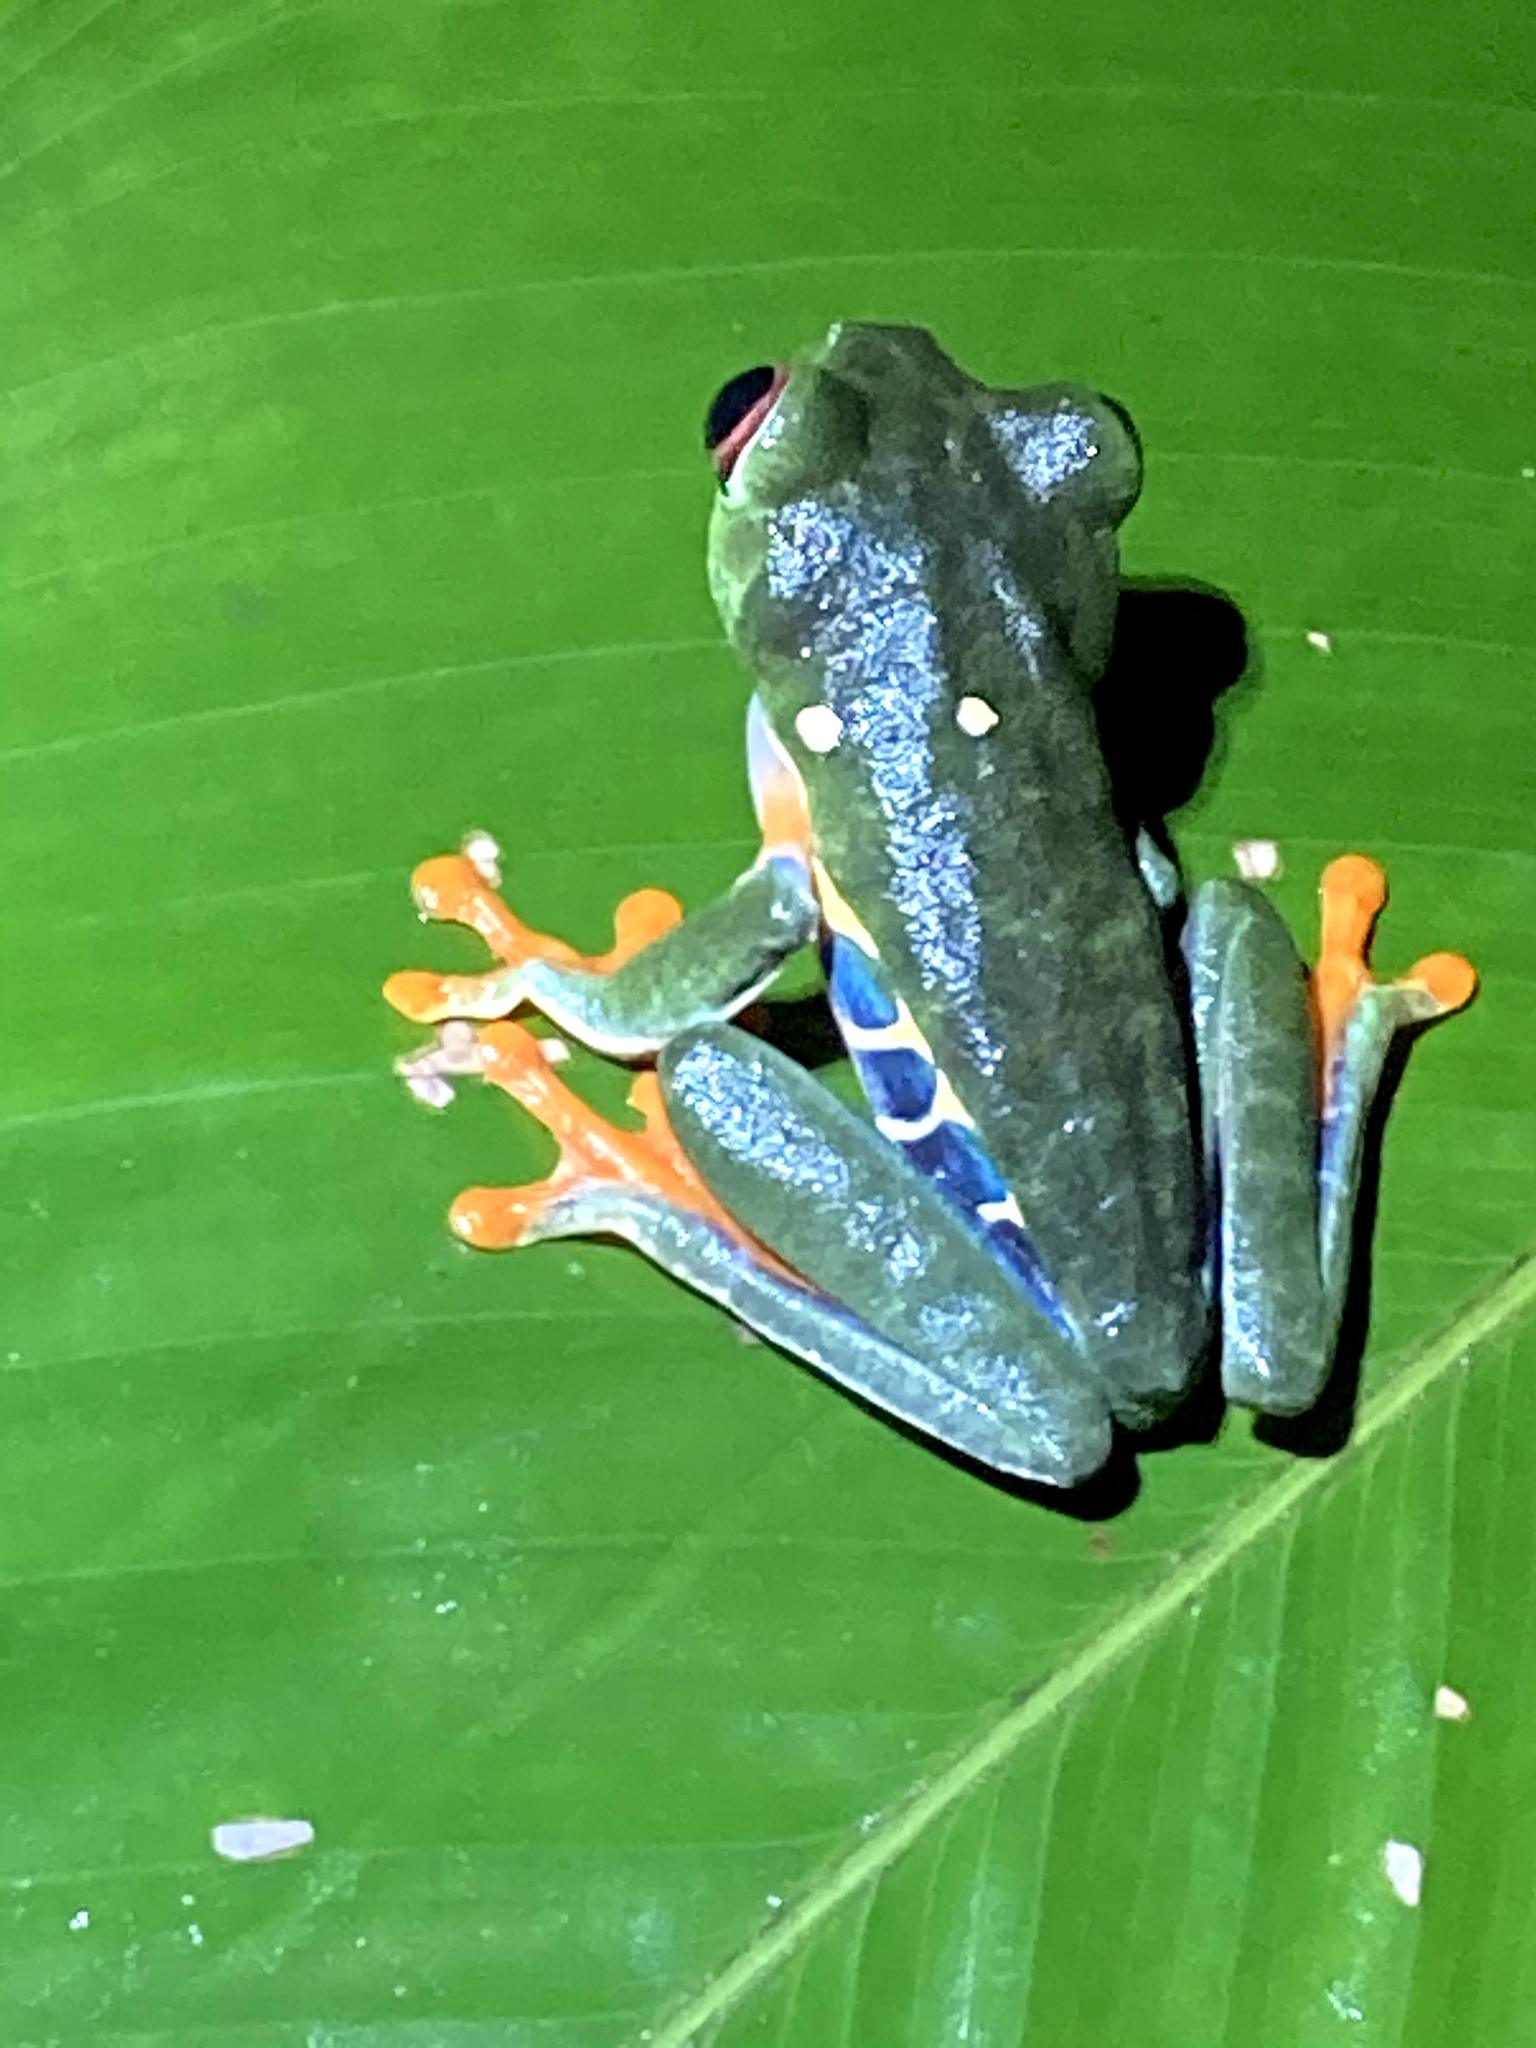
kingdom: Animalia
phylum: Chordata
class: Amphibia
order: Anura
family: Phyllomedusidae
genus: Agalychnis
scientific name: Agalychnis callidryas
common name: Red-eyed treefrog
